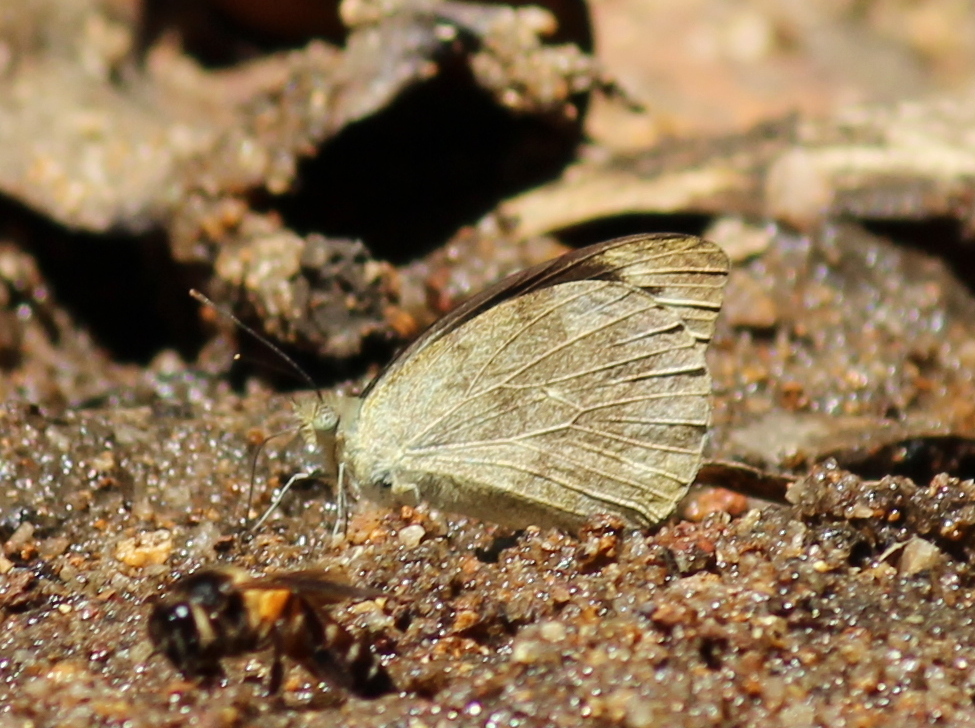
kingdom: Animalia
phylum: Arthropoda
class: Insecta
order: Lepidoptera
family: Pieridae
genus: Appias
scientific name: Appias indra
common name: Plain puffin
